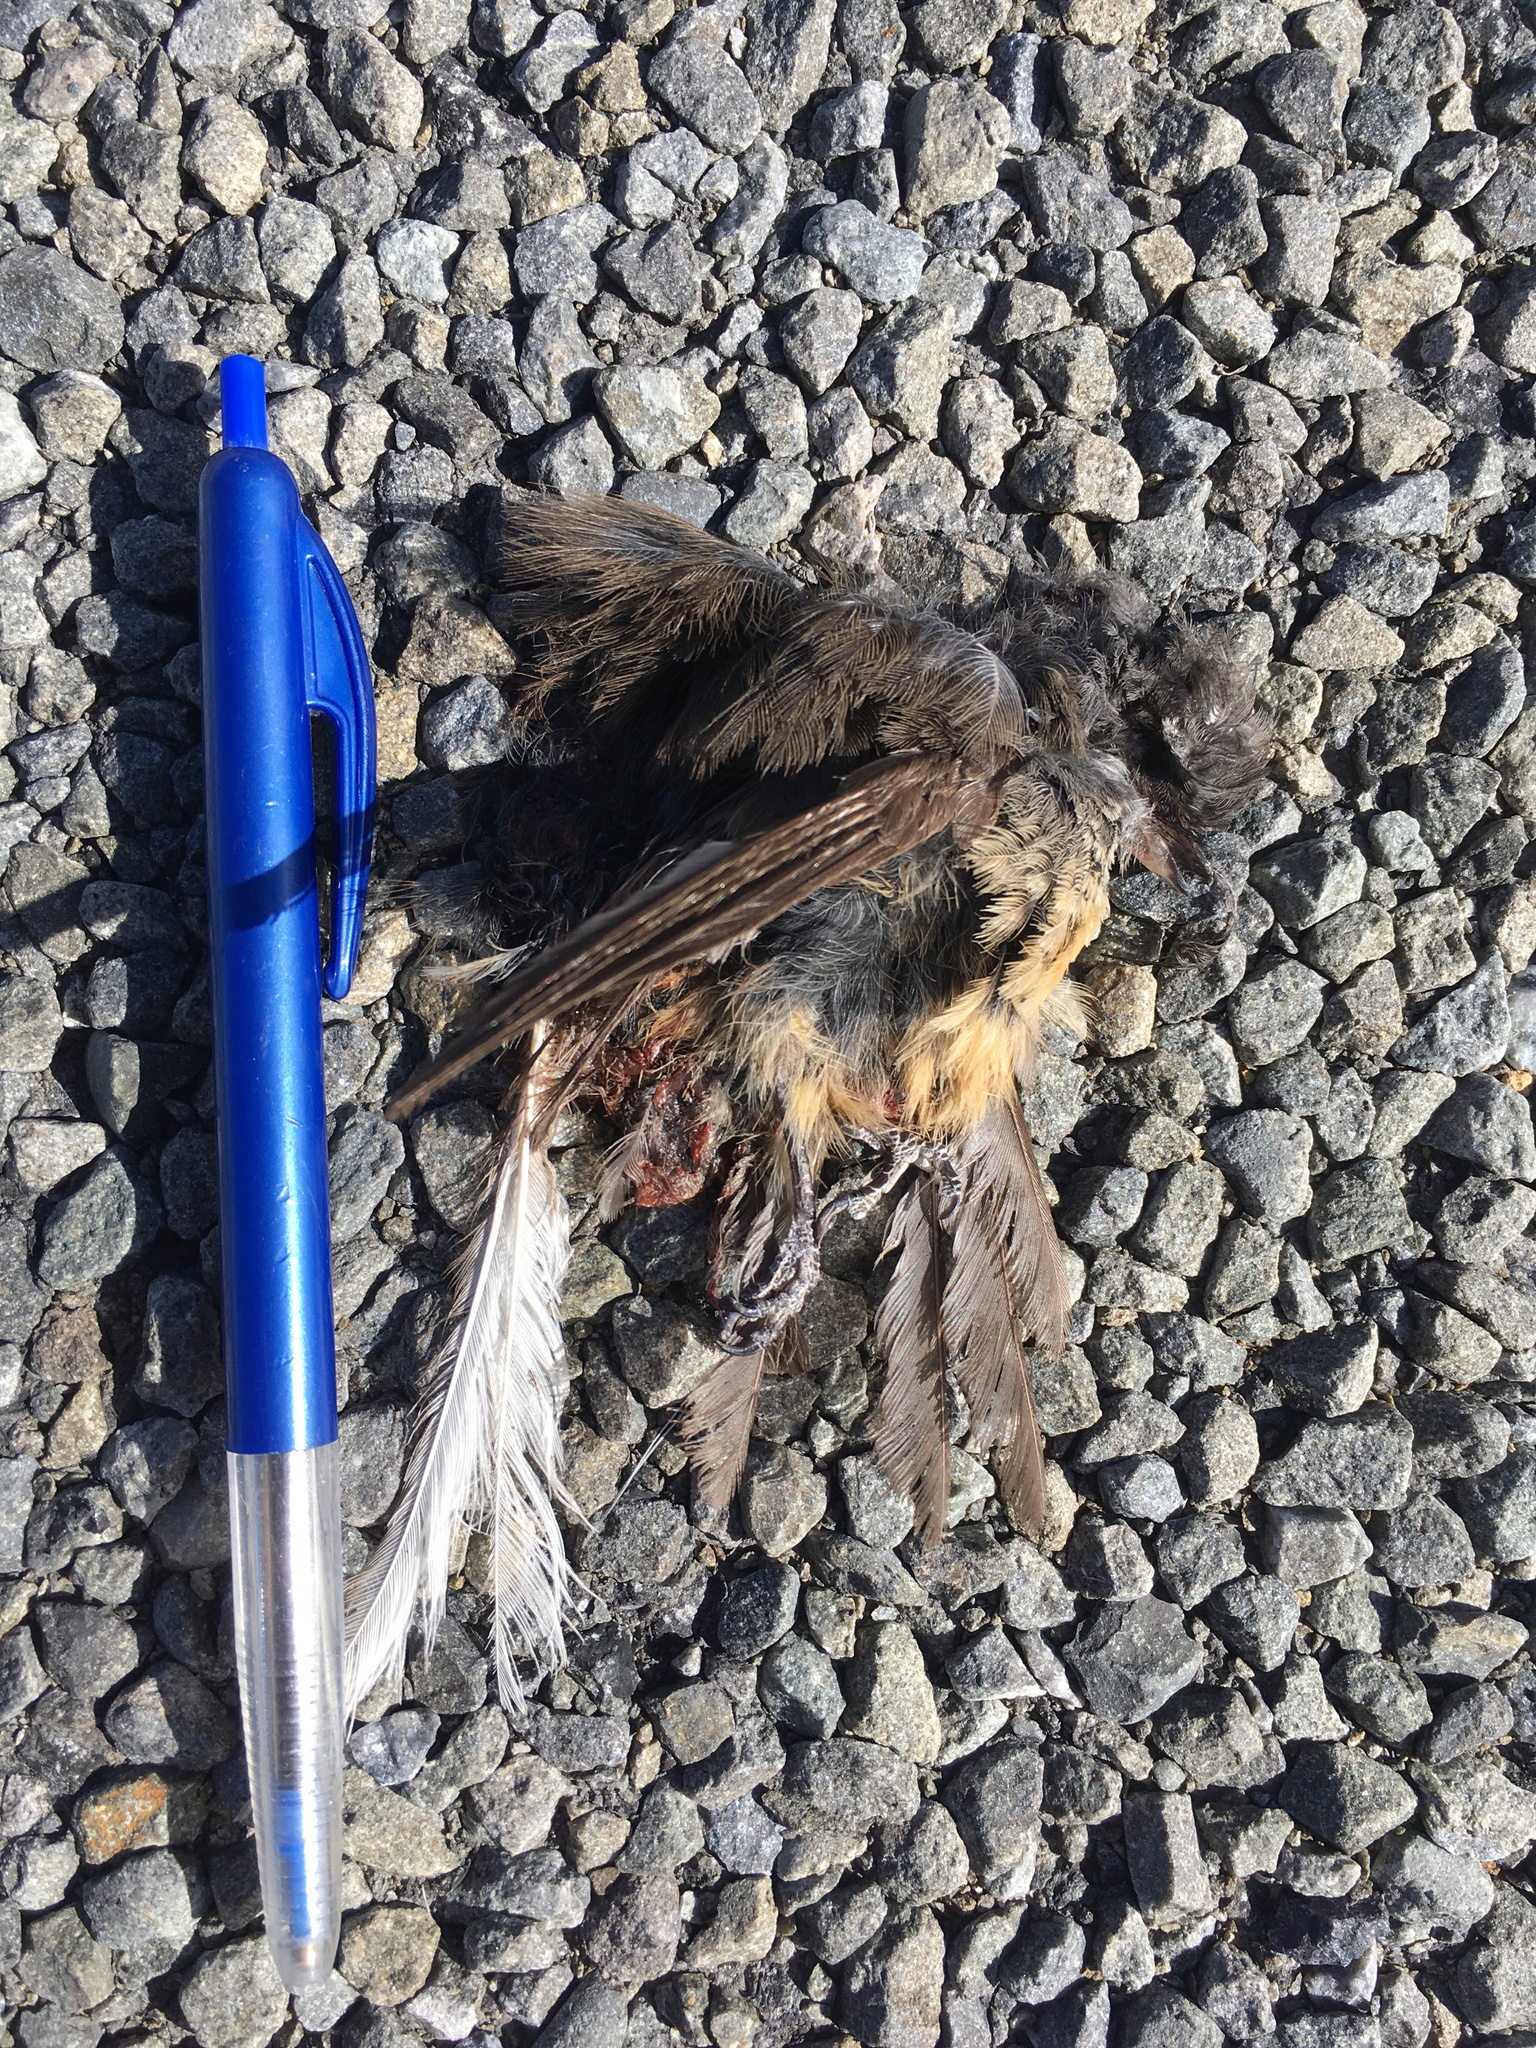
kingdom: Animalia
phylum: Chordata
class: Aves
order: Passeriformes
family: Rhipiduridae
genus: Rhipidura
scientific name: Rhipidura fuliginosa
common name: New zealand fantail
